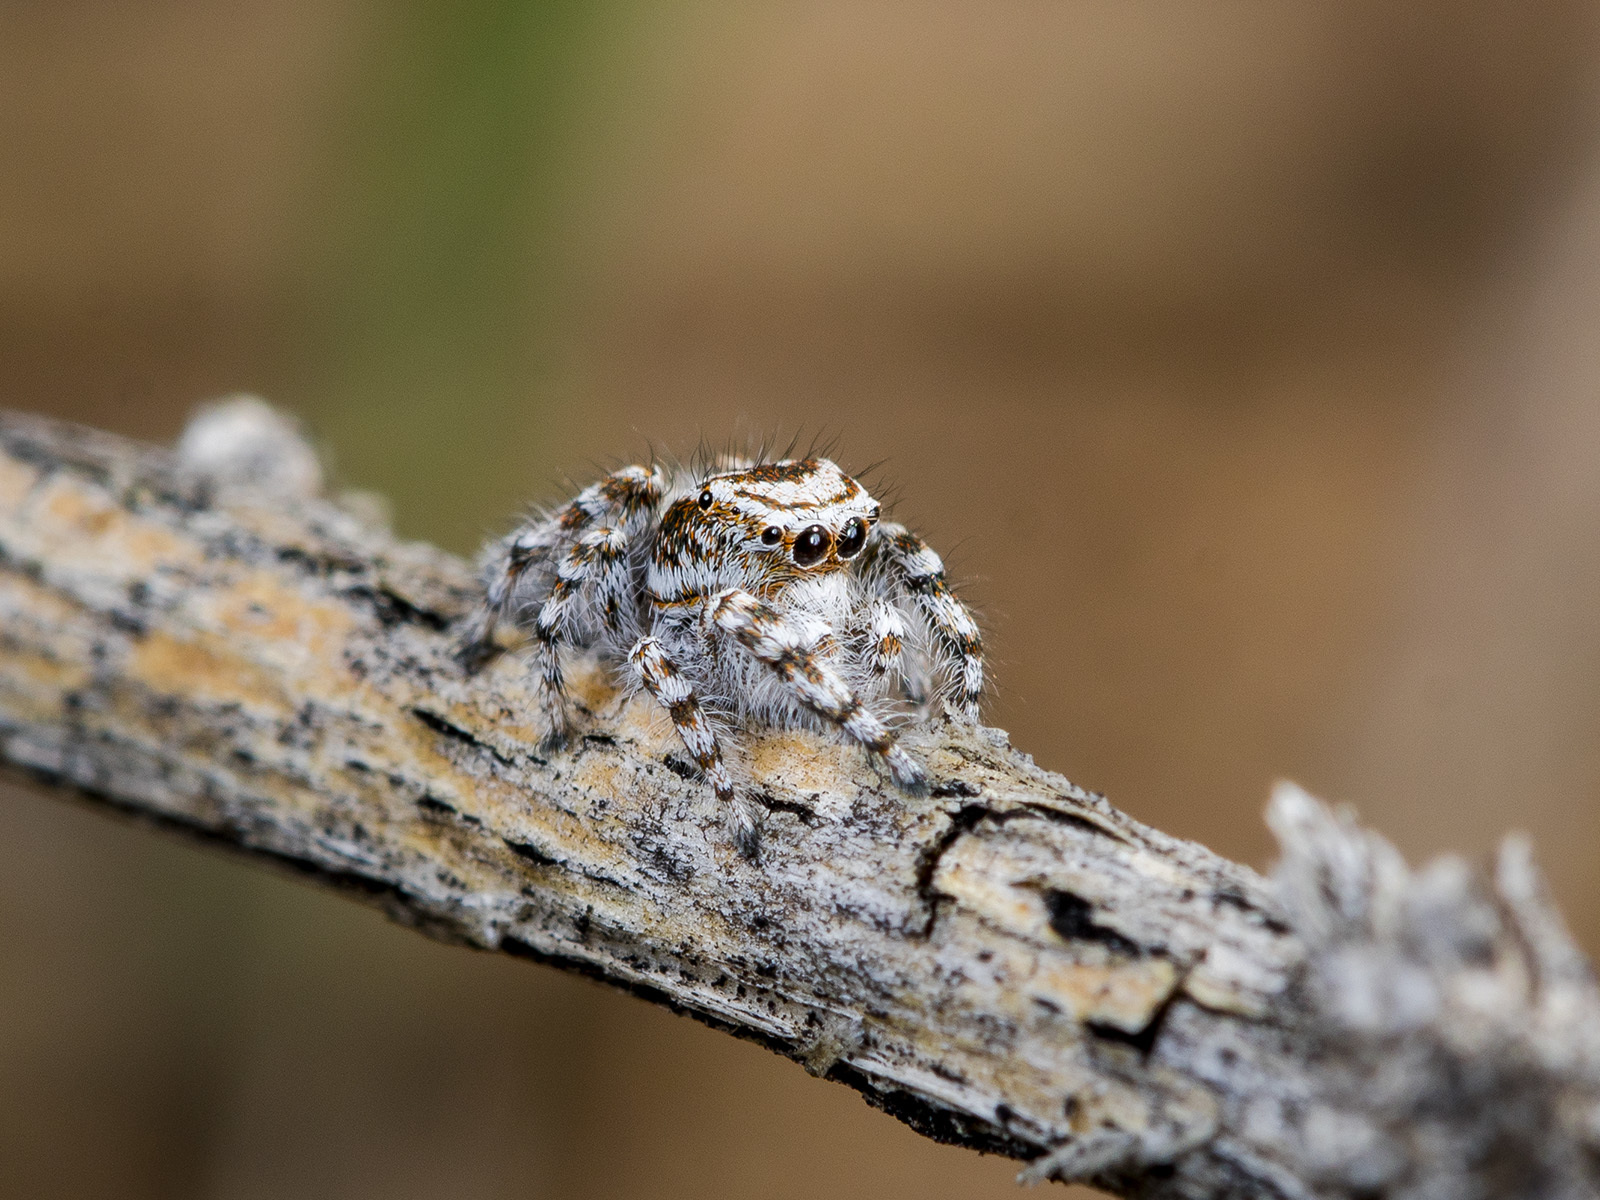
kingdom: Animalia
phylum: Arthropoda
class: Arachnida
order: Araneae
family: Salticidae
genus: Pseudomogrus
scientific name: Pseudomogrus dalaensis
